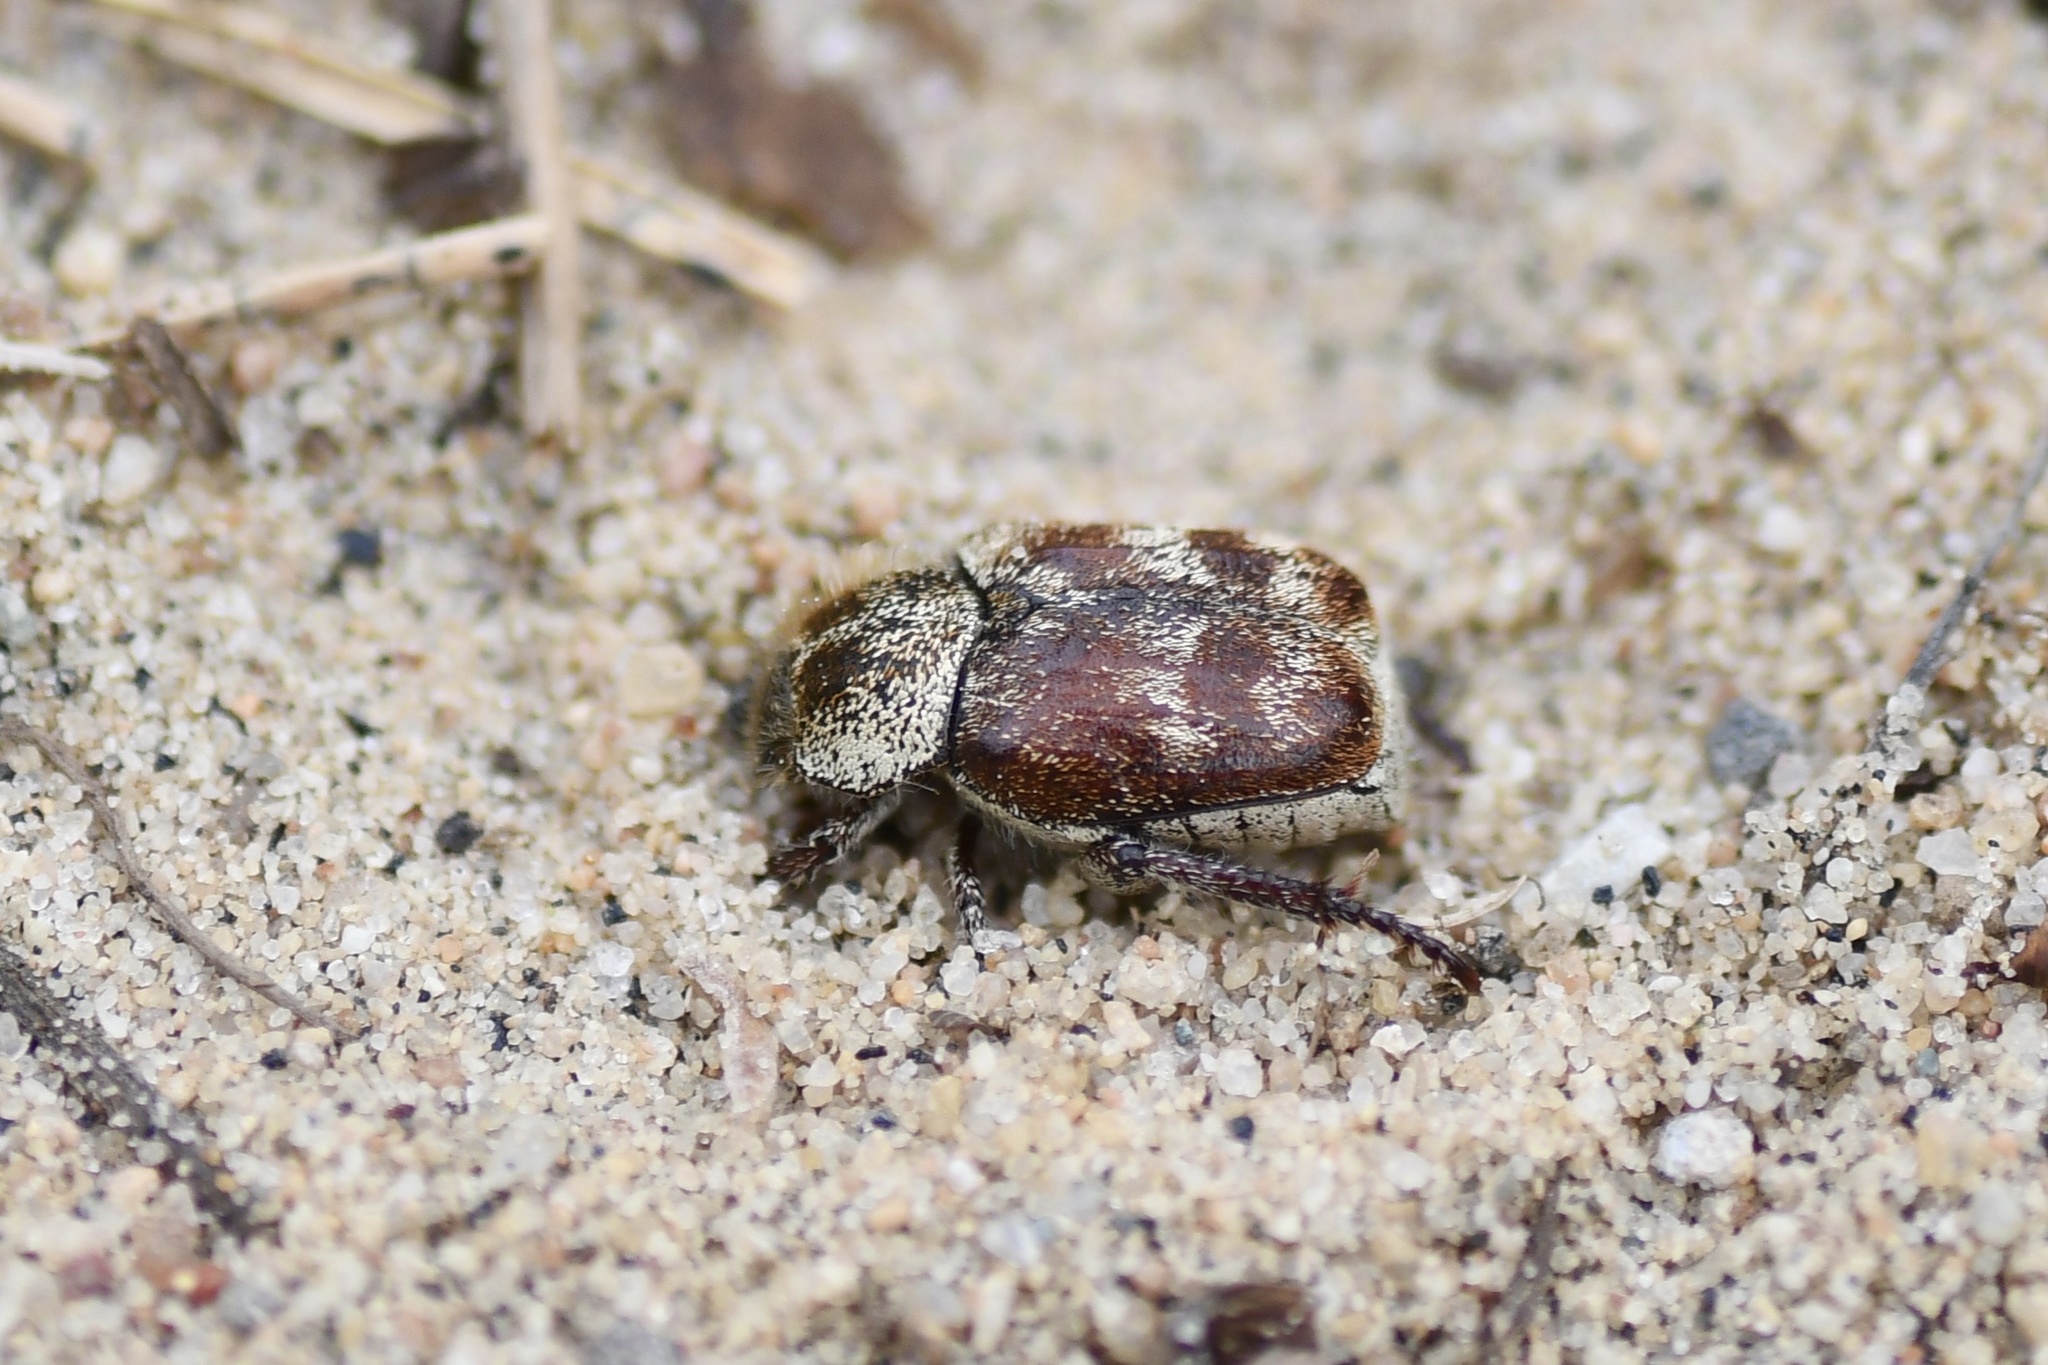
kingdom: Animalia
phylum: Arthropoda
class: Insecta
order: Coleoptera
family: Scarabaeidae
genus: Hoplia
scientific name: Hoplia trifasciata
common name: Three-lined hoplia
